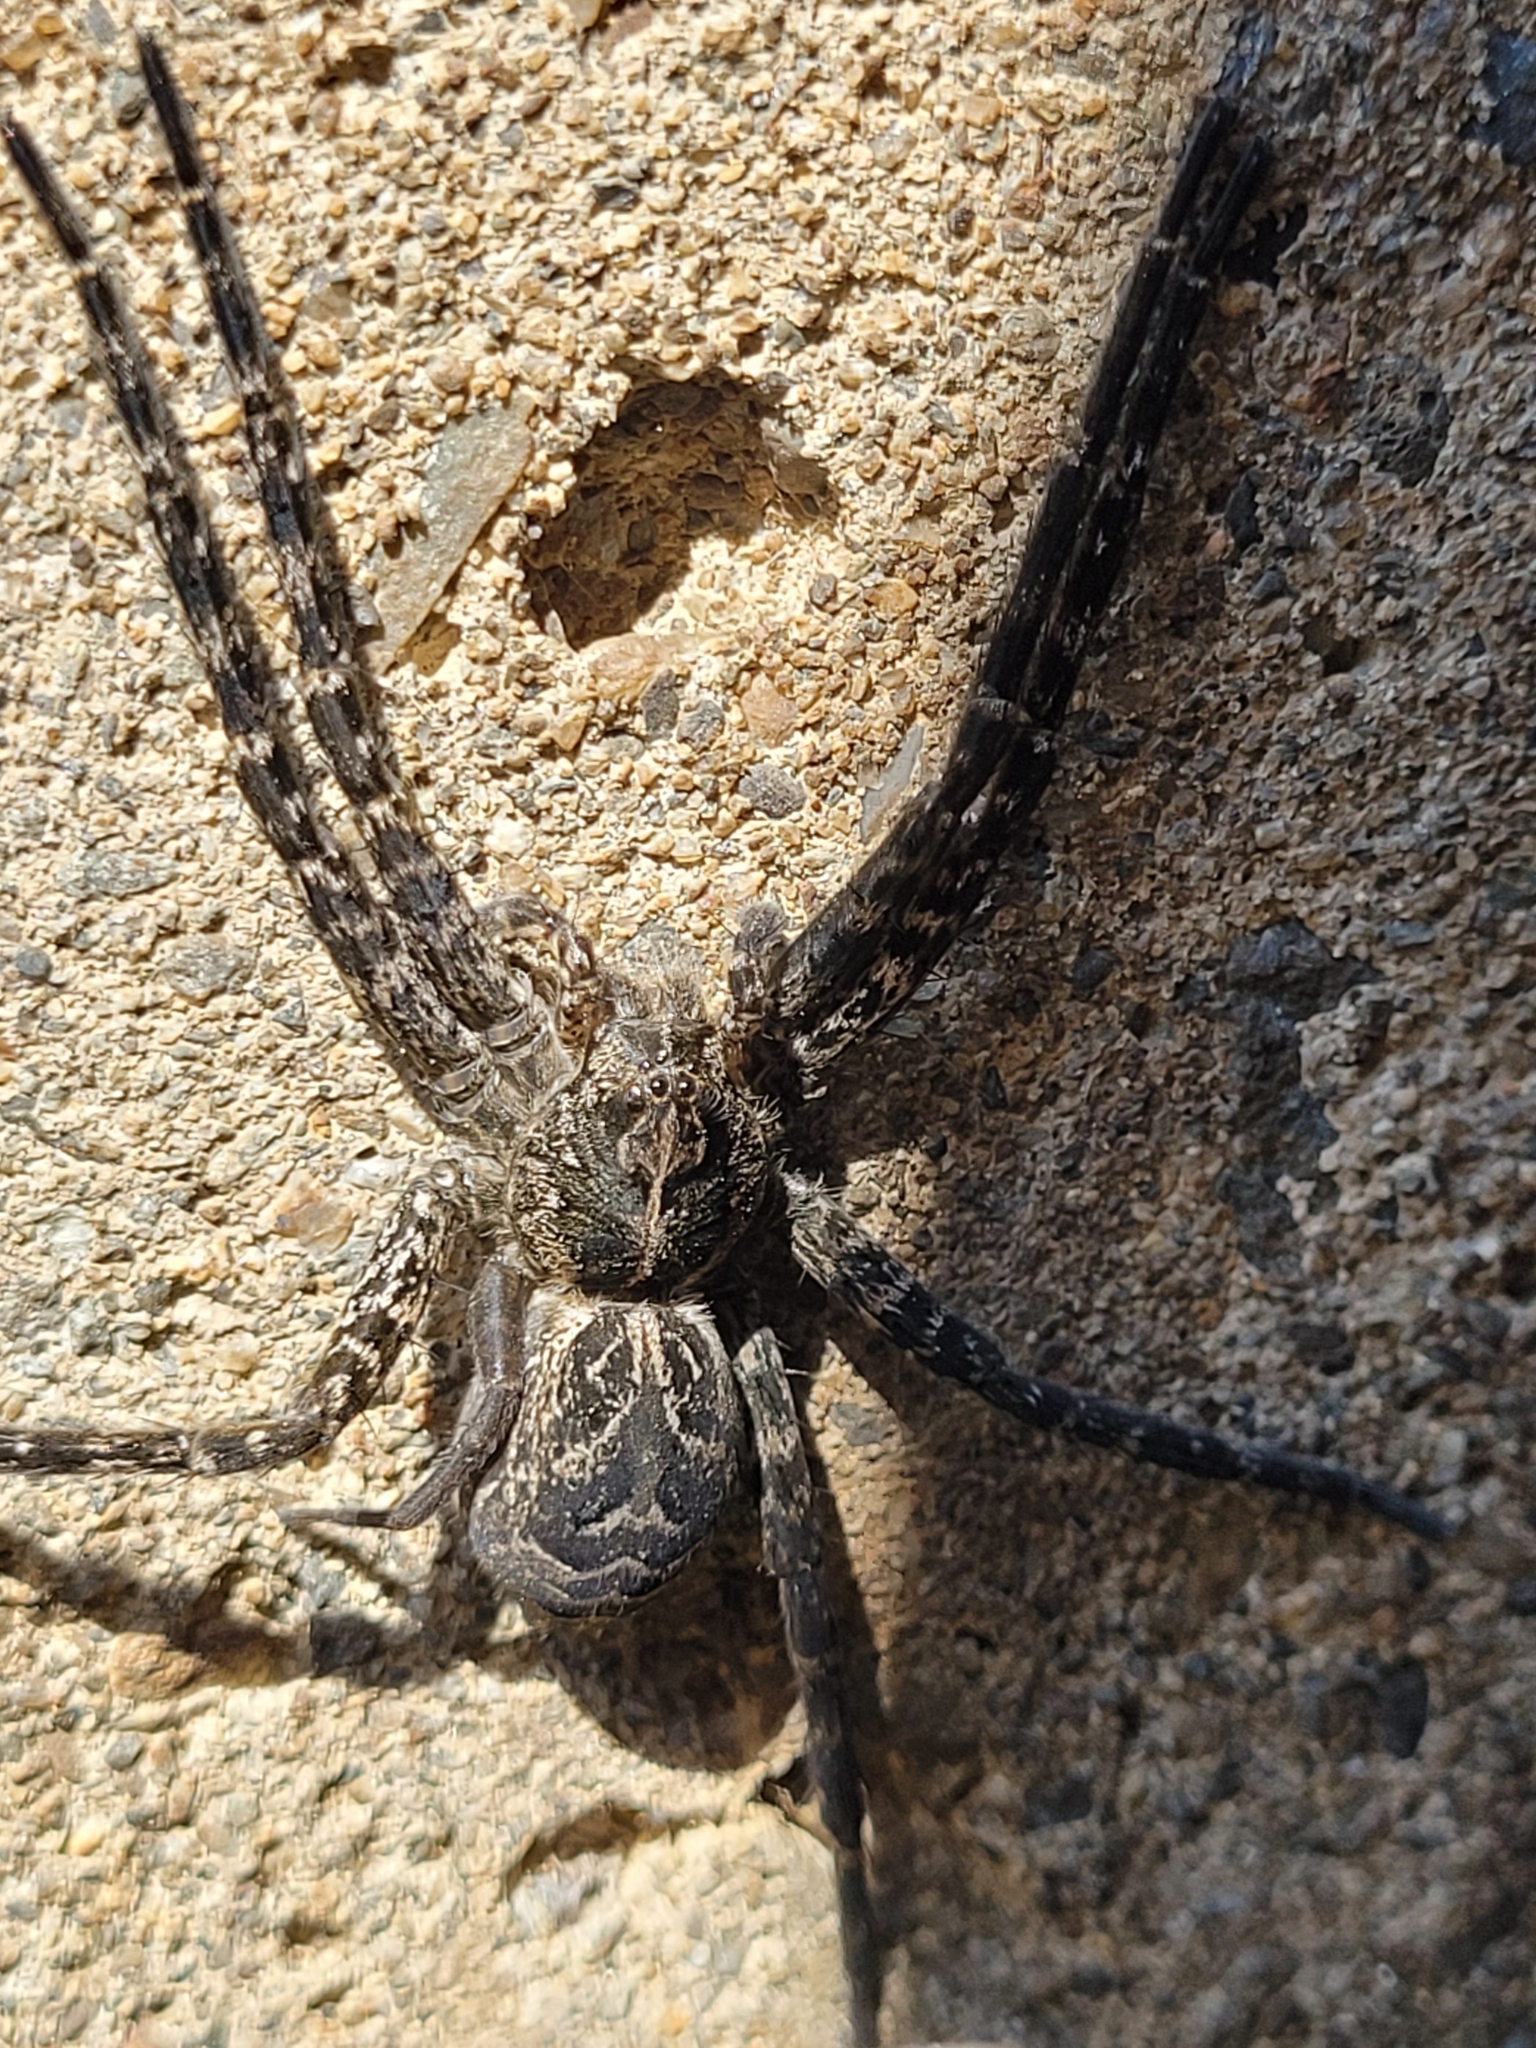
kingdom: Animalia
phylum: Arthropoda
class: Arachnida
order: Araneae
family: Pisauridae
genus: Dolomedes
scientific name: Dolomedes scriptus
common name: Striped fishing spider
